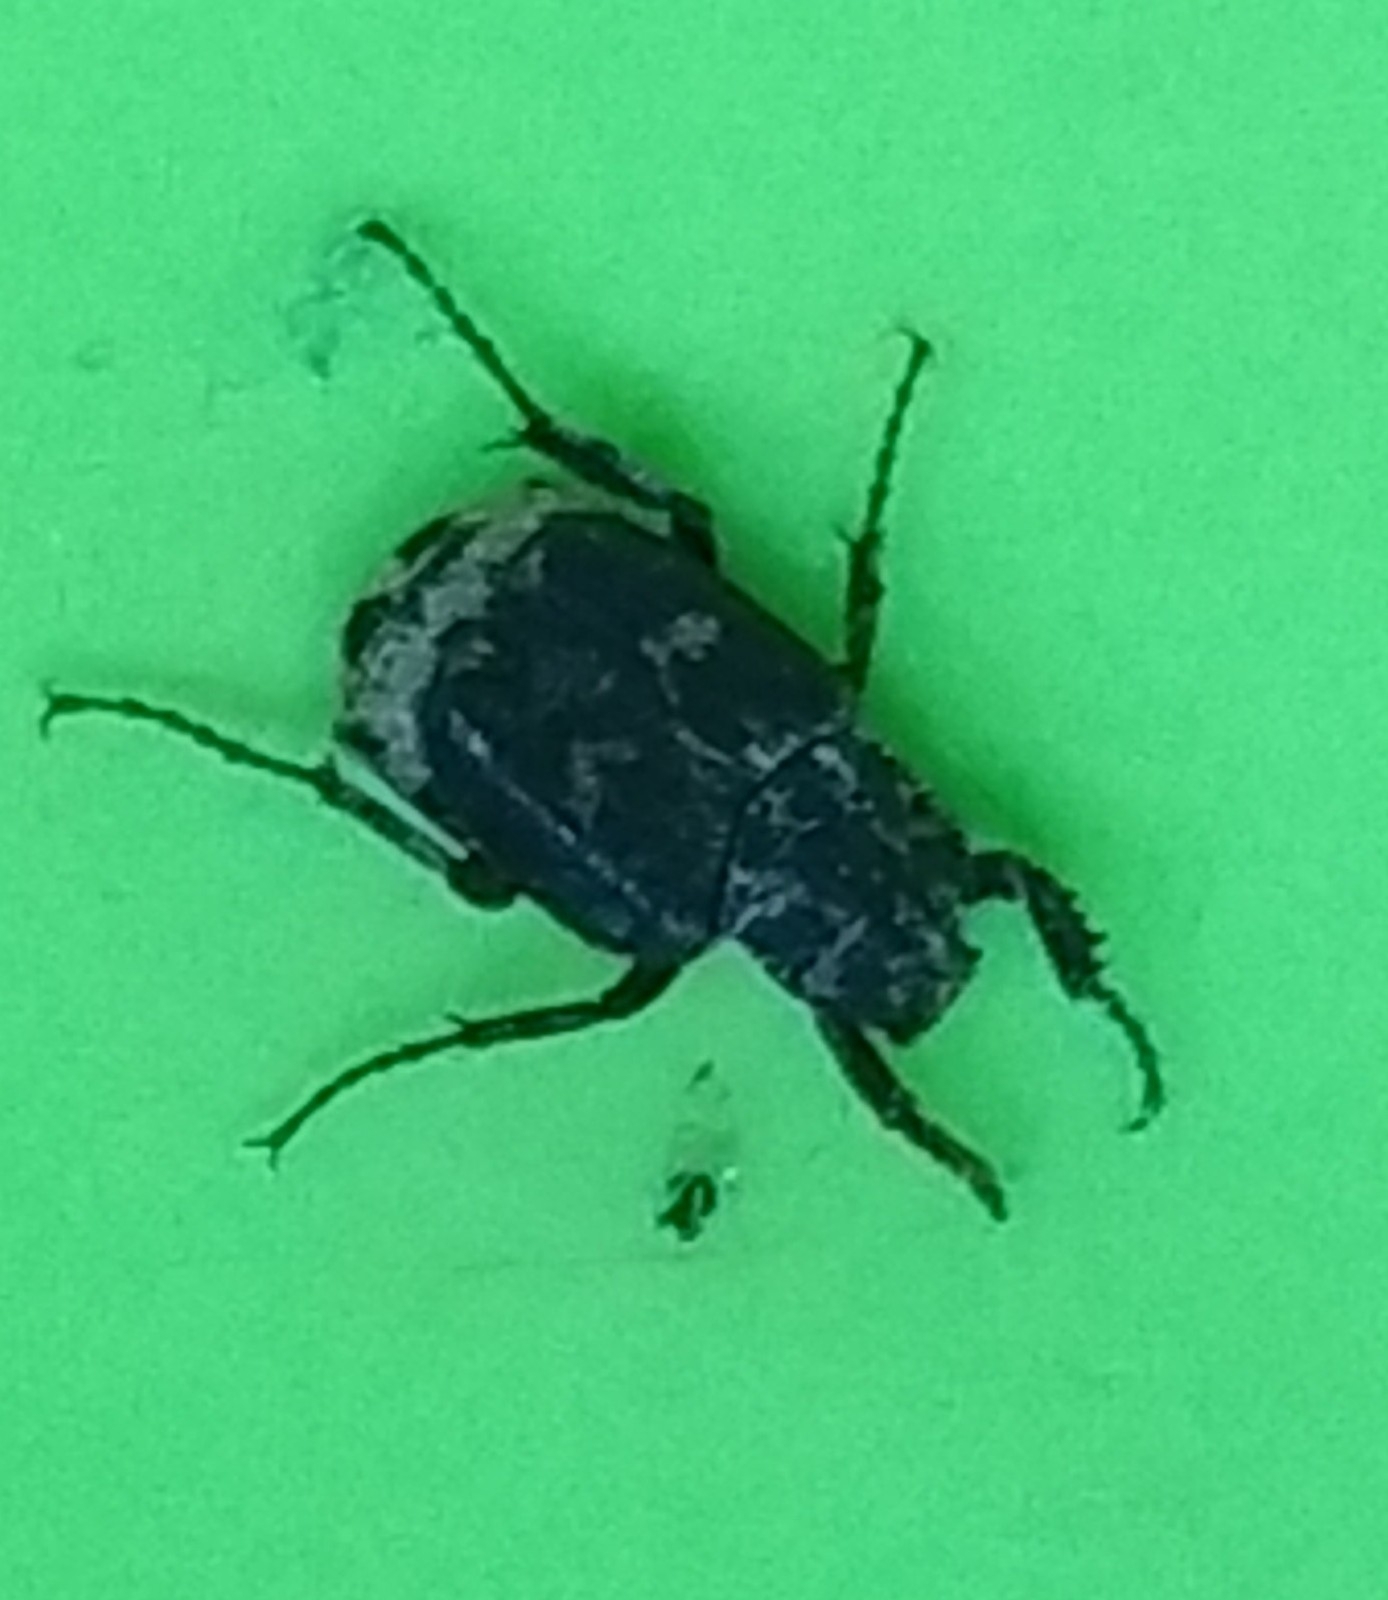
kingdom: Animalia
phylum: Arthropoda
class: Insecta
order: Coleoptera
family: Scarabaeidae
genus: Valgus
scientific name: Valgus hemipterus
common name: Bug flower chafer
